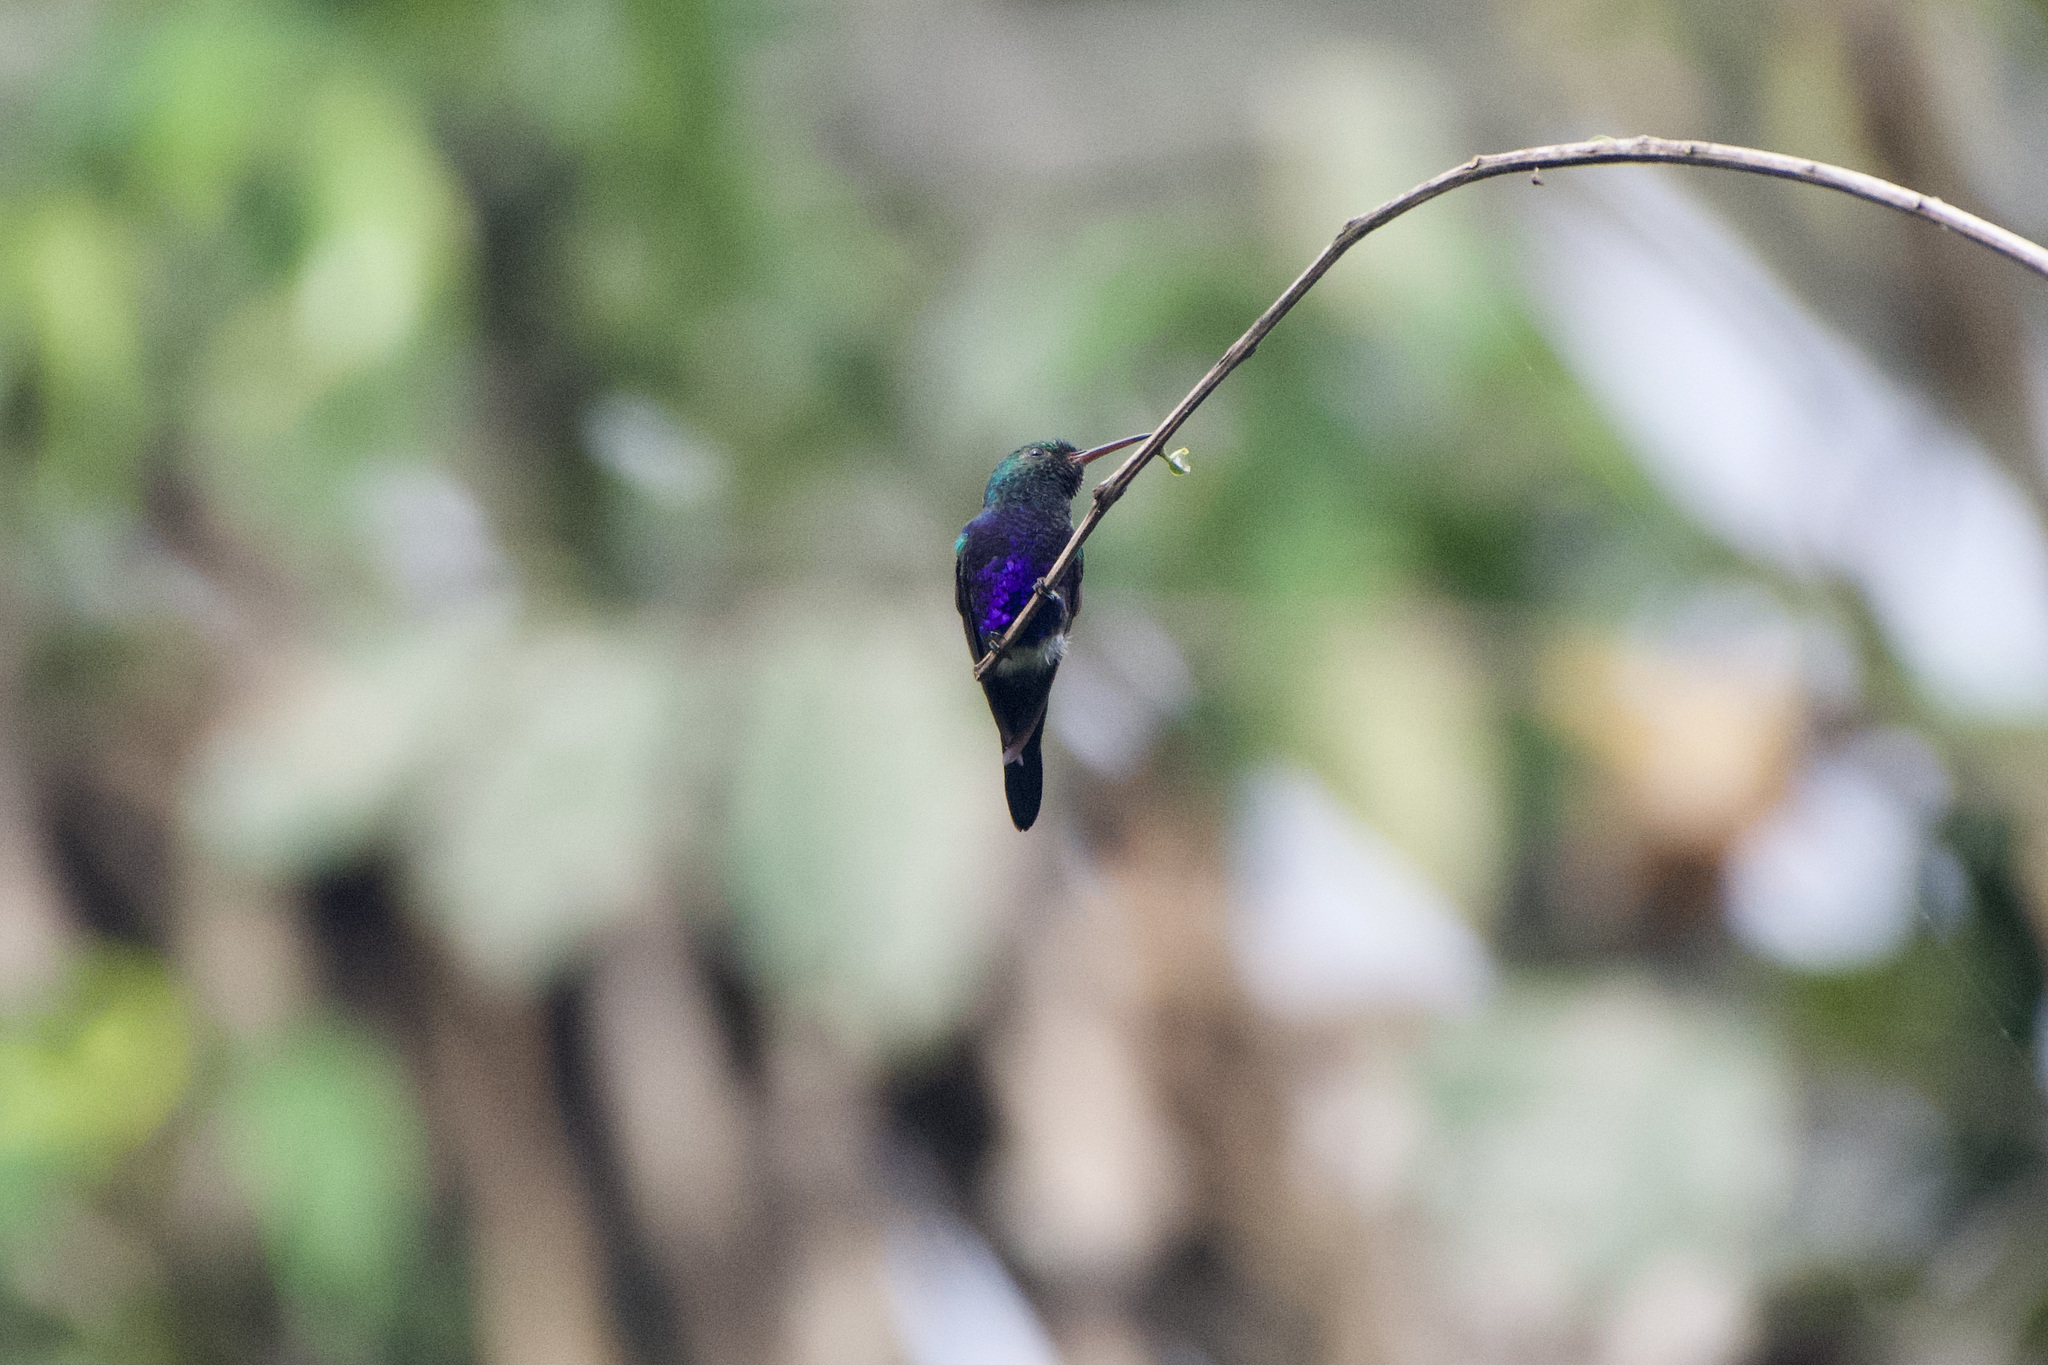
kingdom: Animalia
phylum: Chordata
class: Aves
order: Apodiformes
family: Trochilidae
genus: Chlorestes
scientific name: Chlorestes julie
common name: Violet-bellied hummingbird
